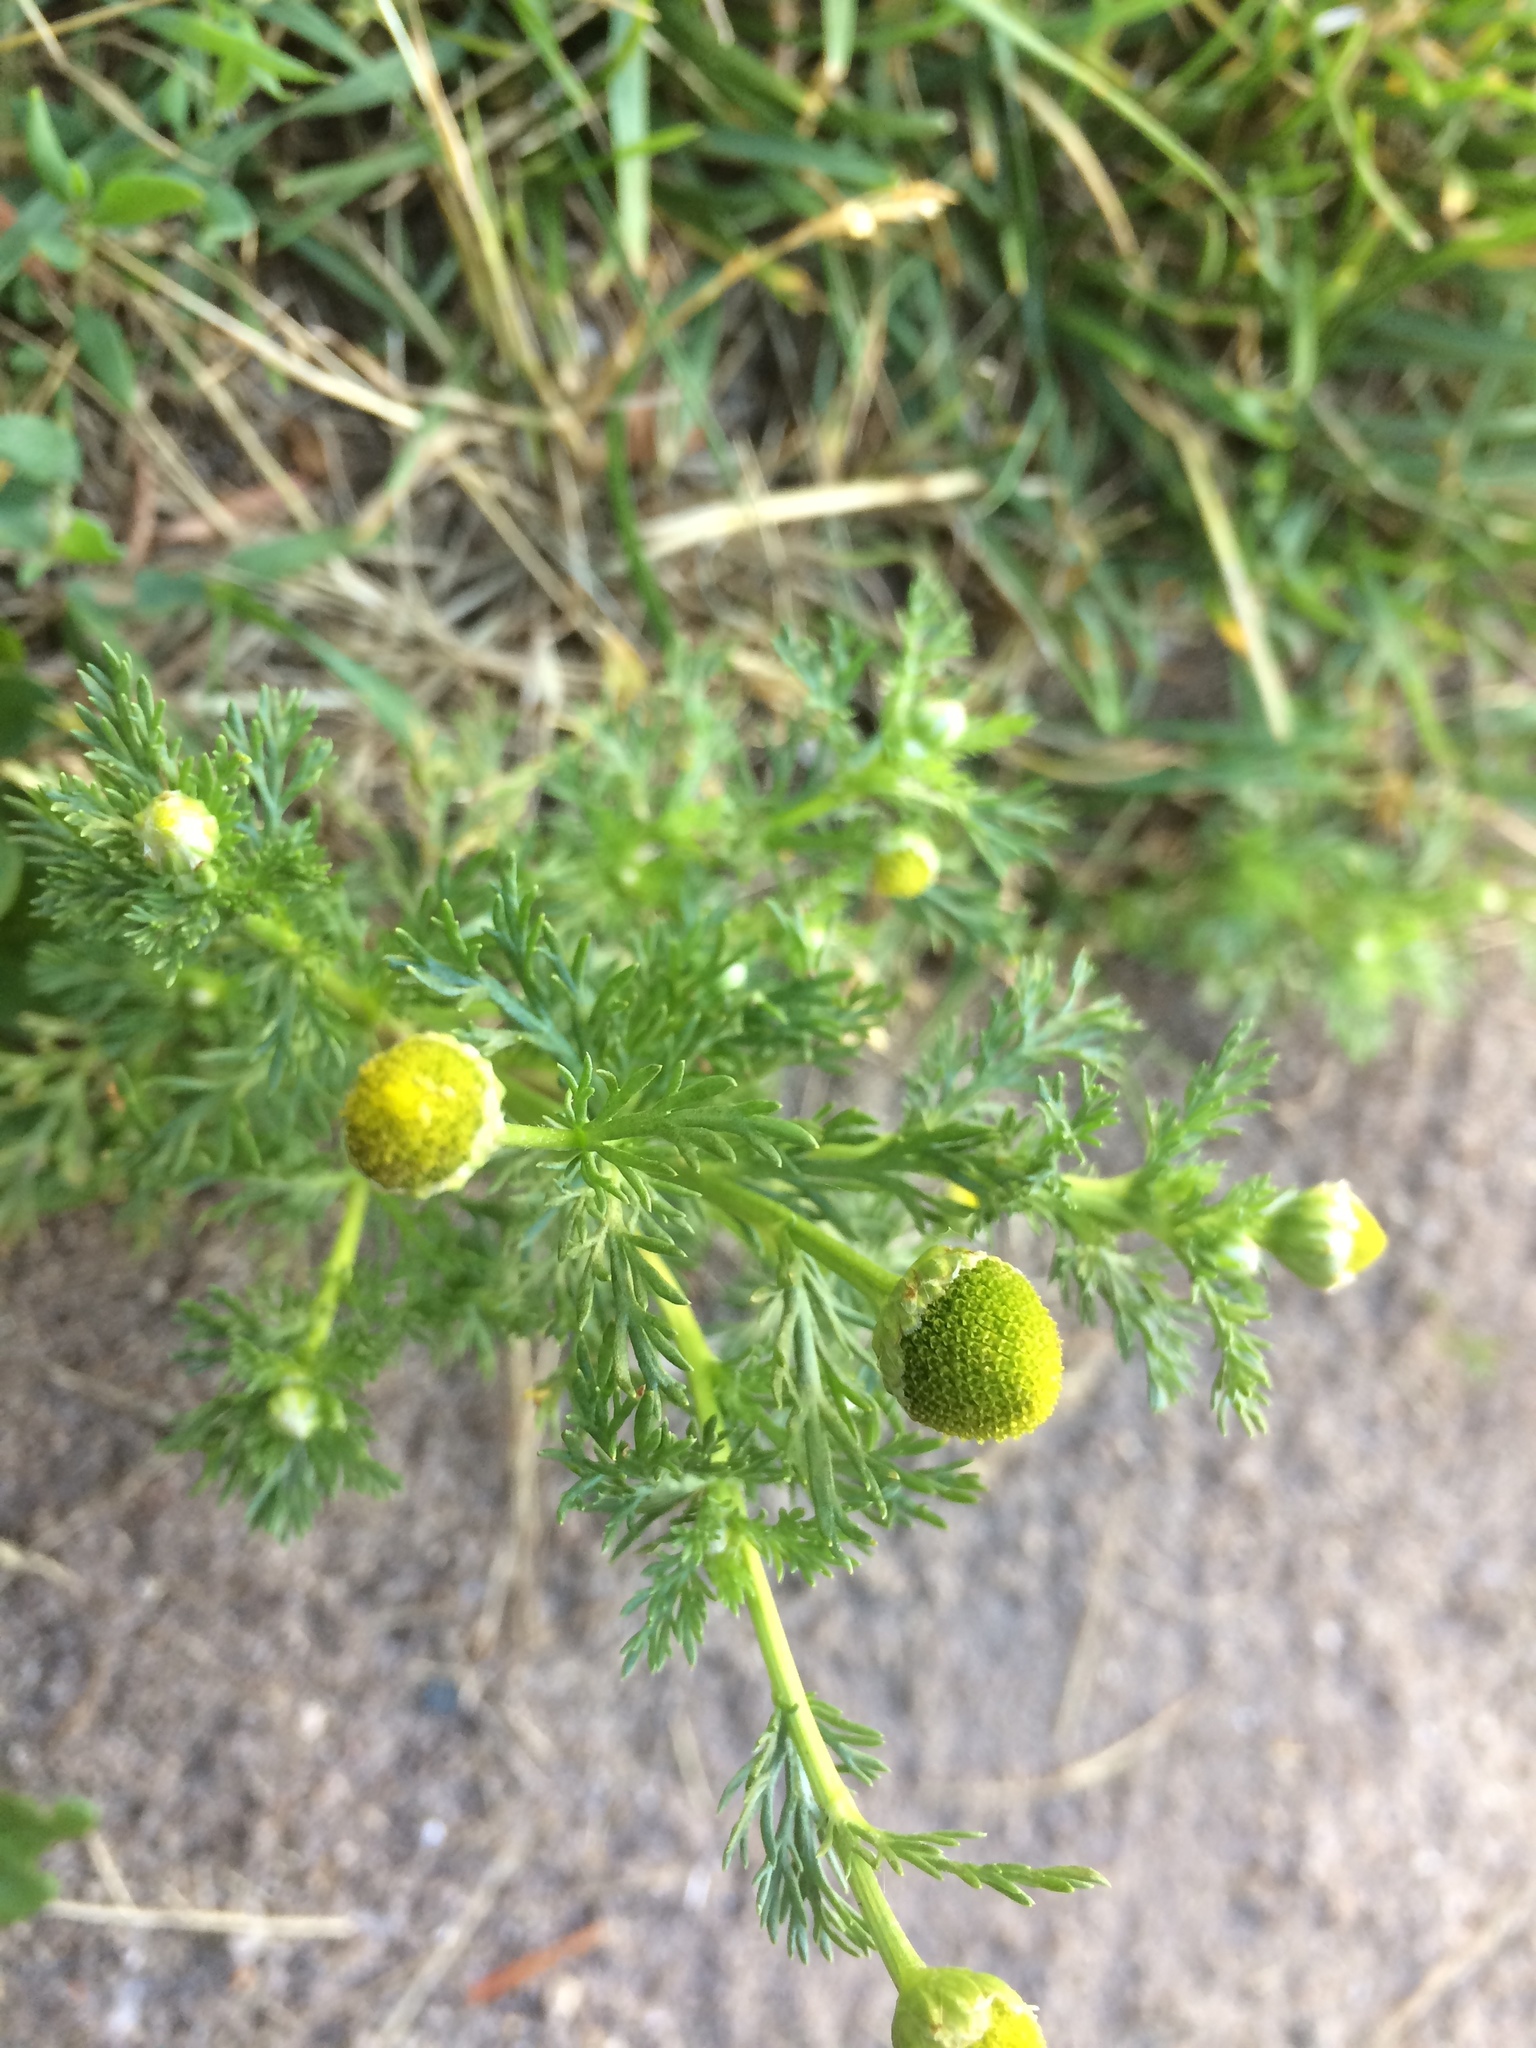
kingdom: Plantae
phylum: Tracheophyta
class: Magnoliopsida
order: Asterales
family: Asteraceae
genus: Matricaria
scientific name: Matricaria discoidea
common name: Disc mayweed
